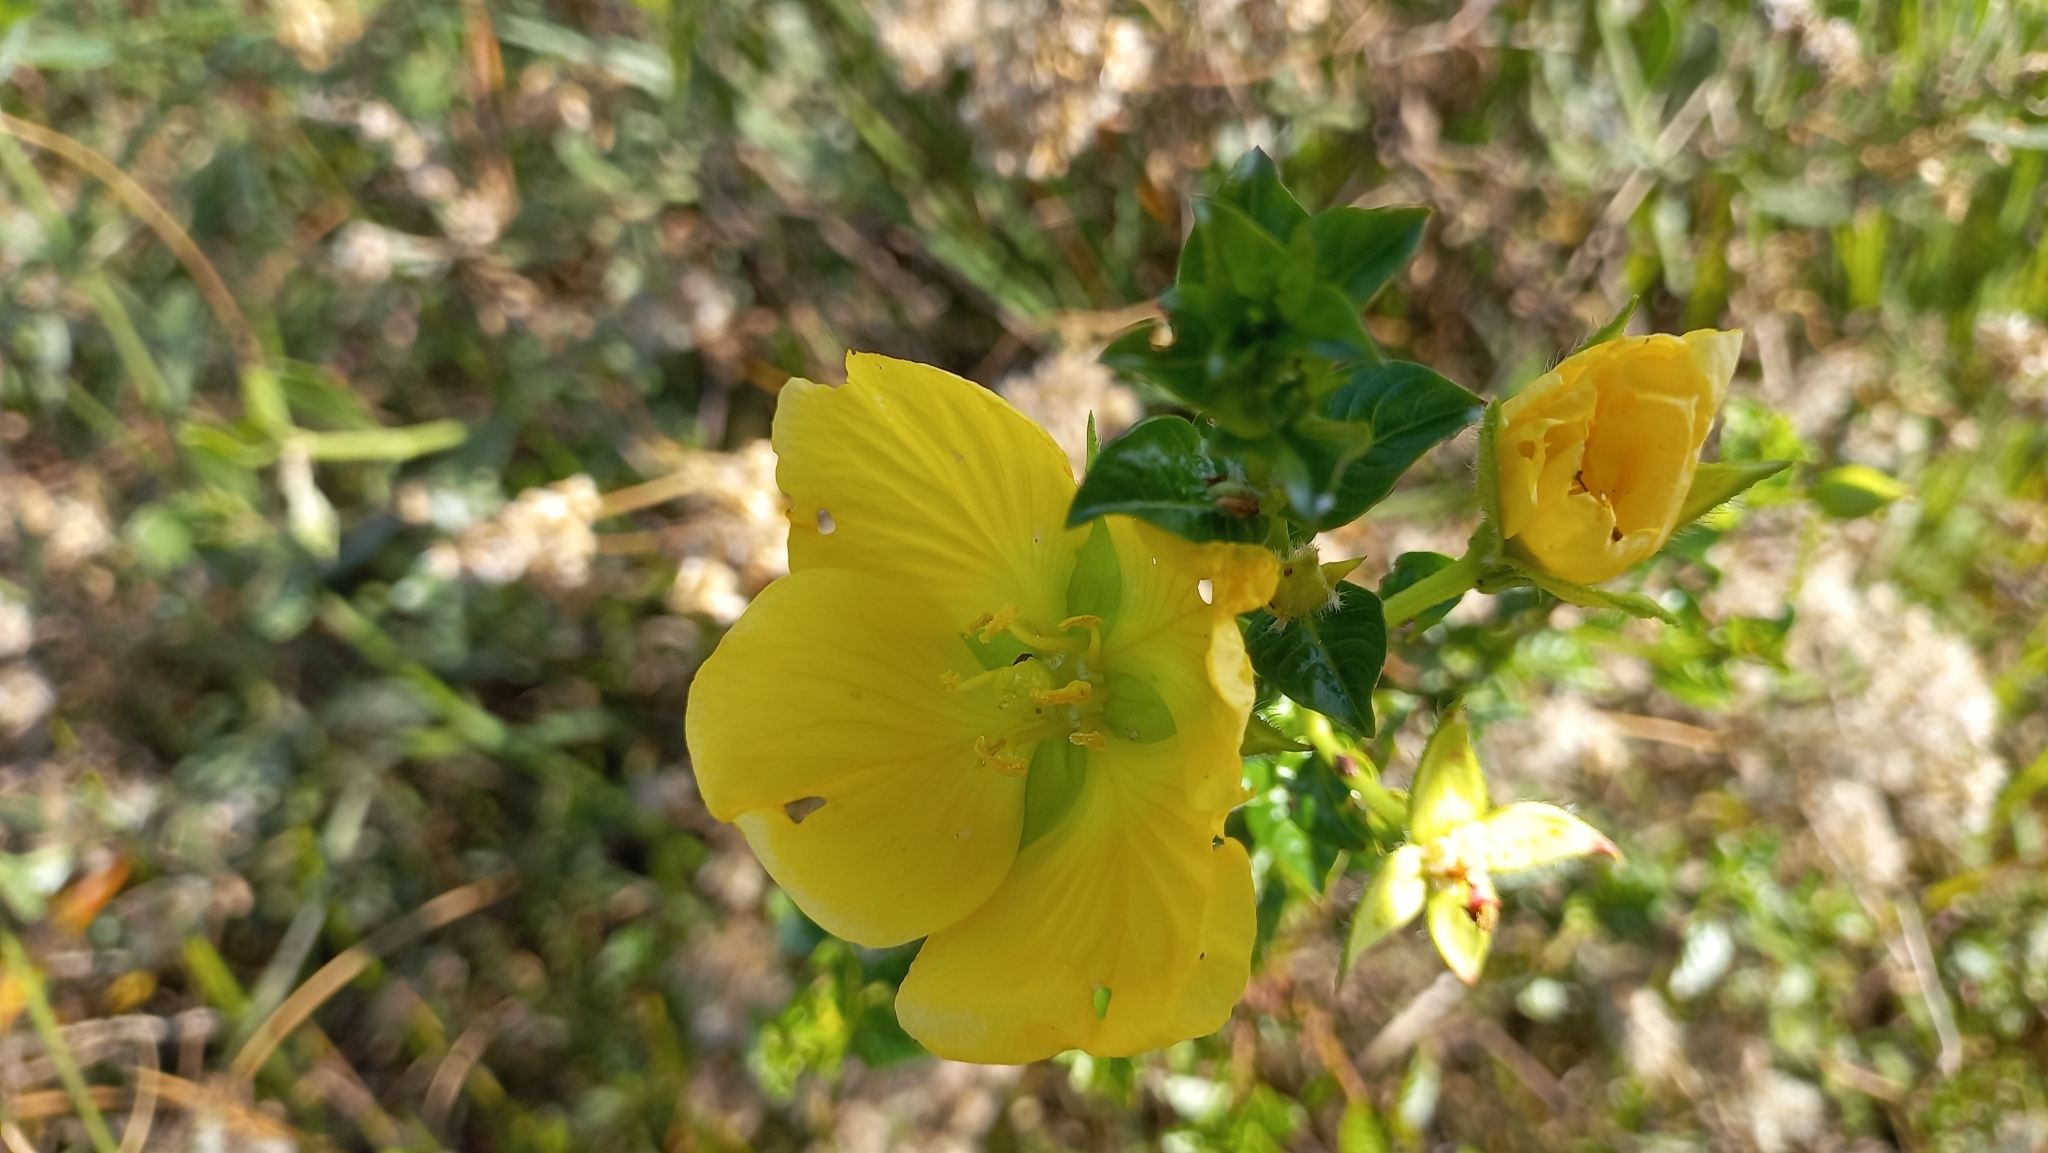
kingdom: Plantae
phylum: Tracheophyta
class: Magnoliopsida
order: Myrtales
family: Onagraceae
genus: Ludwigia
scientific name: Ludwigia multinervia
